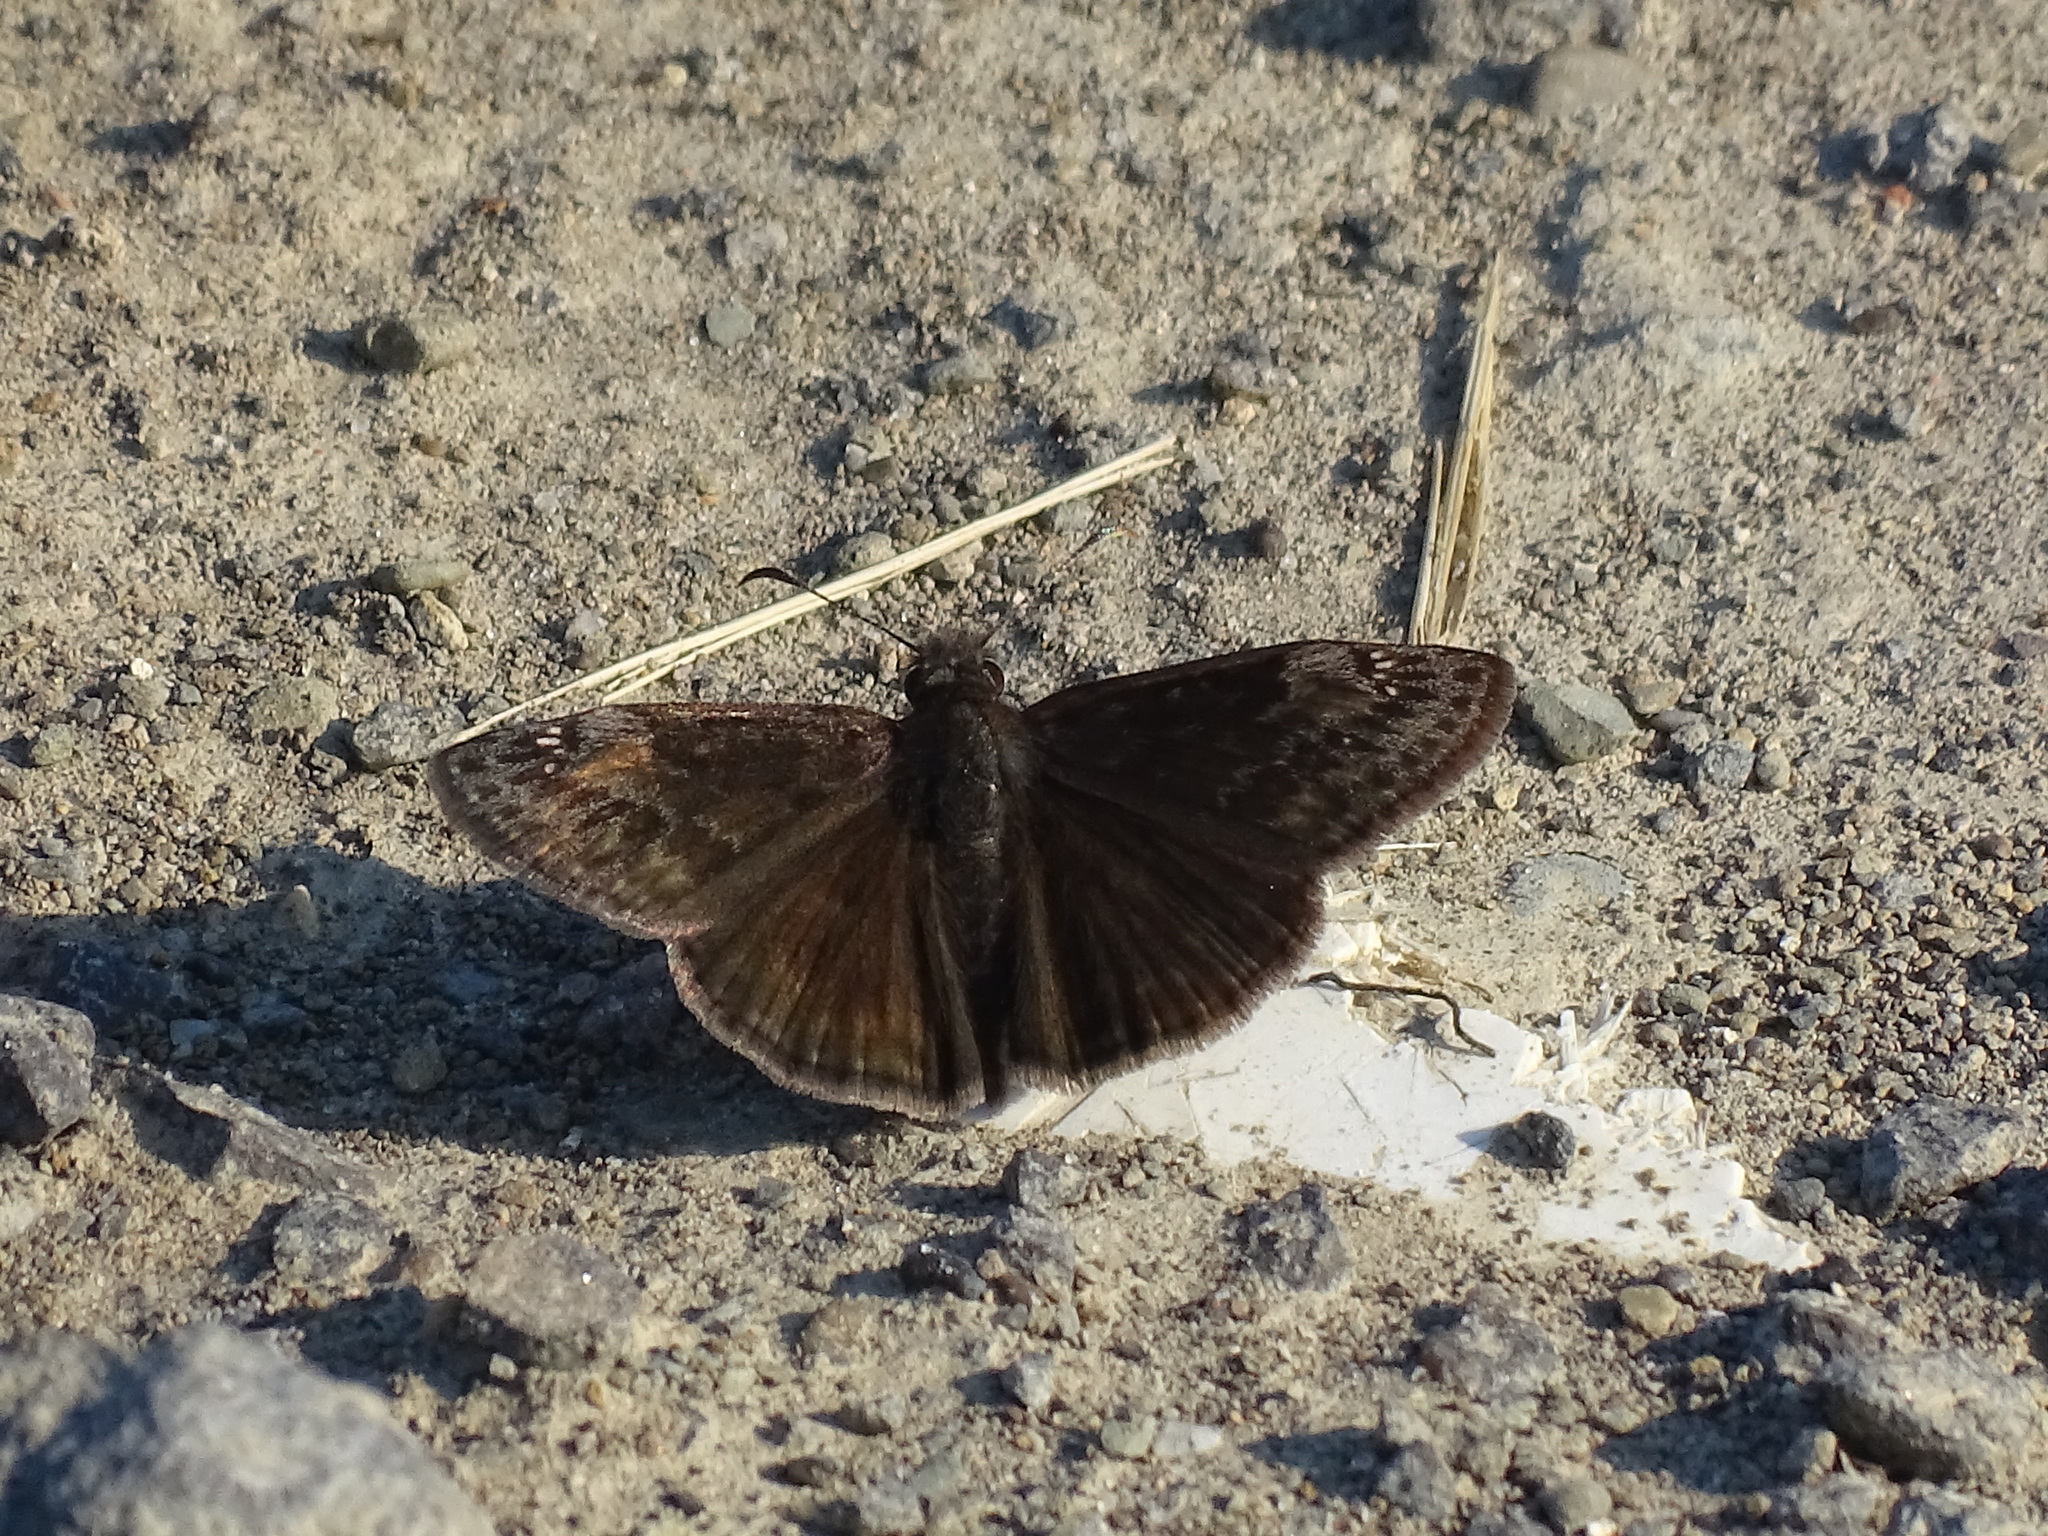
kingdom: Animalia
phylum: Arthropoda
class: Insecta
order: Lepidoptera
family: Hesperiidae
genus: Erynnis
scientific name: Erynnis baptisiae
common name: Wild indigo duskywing
